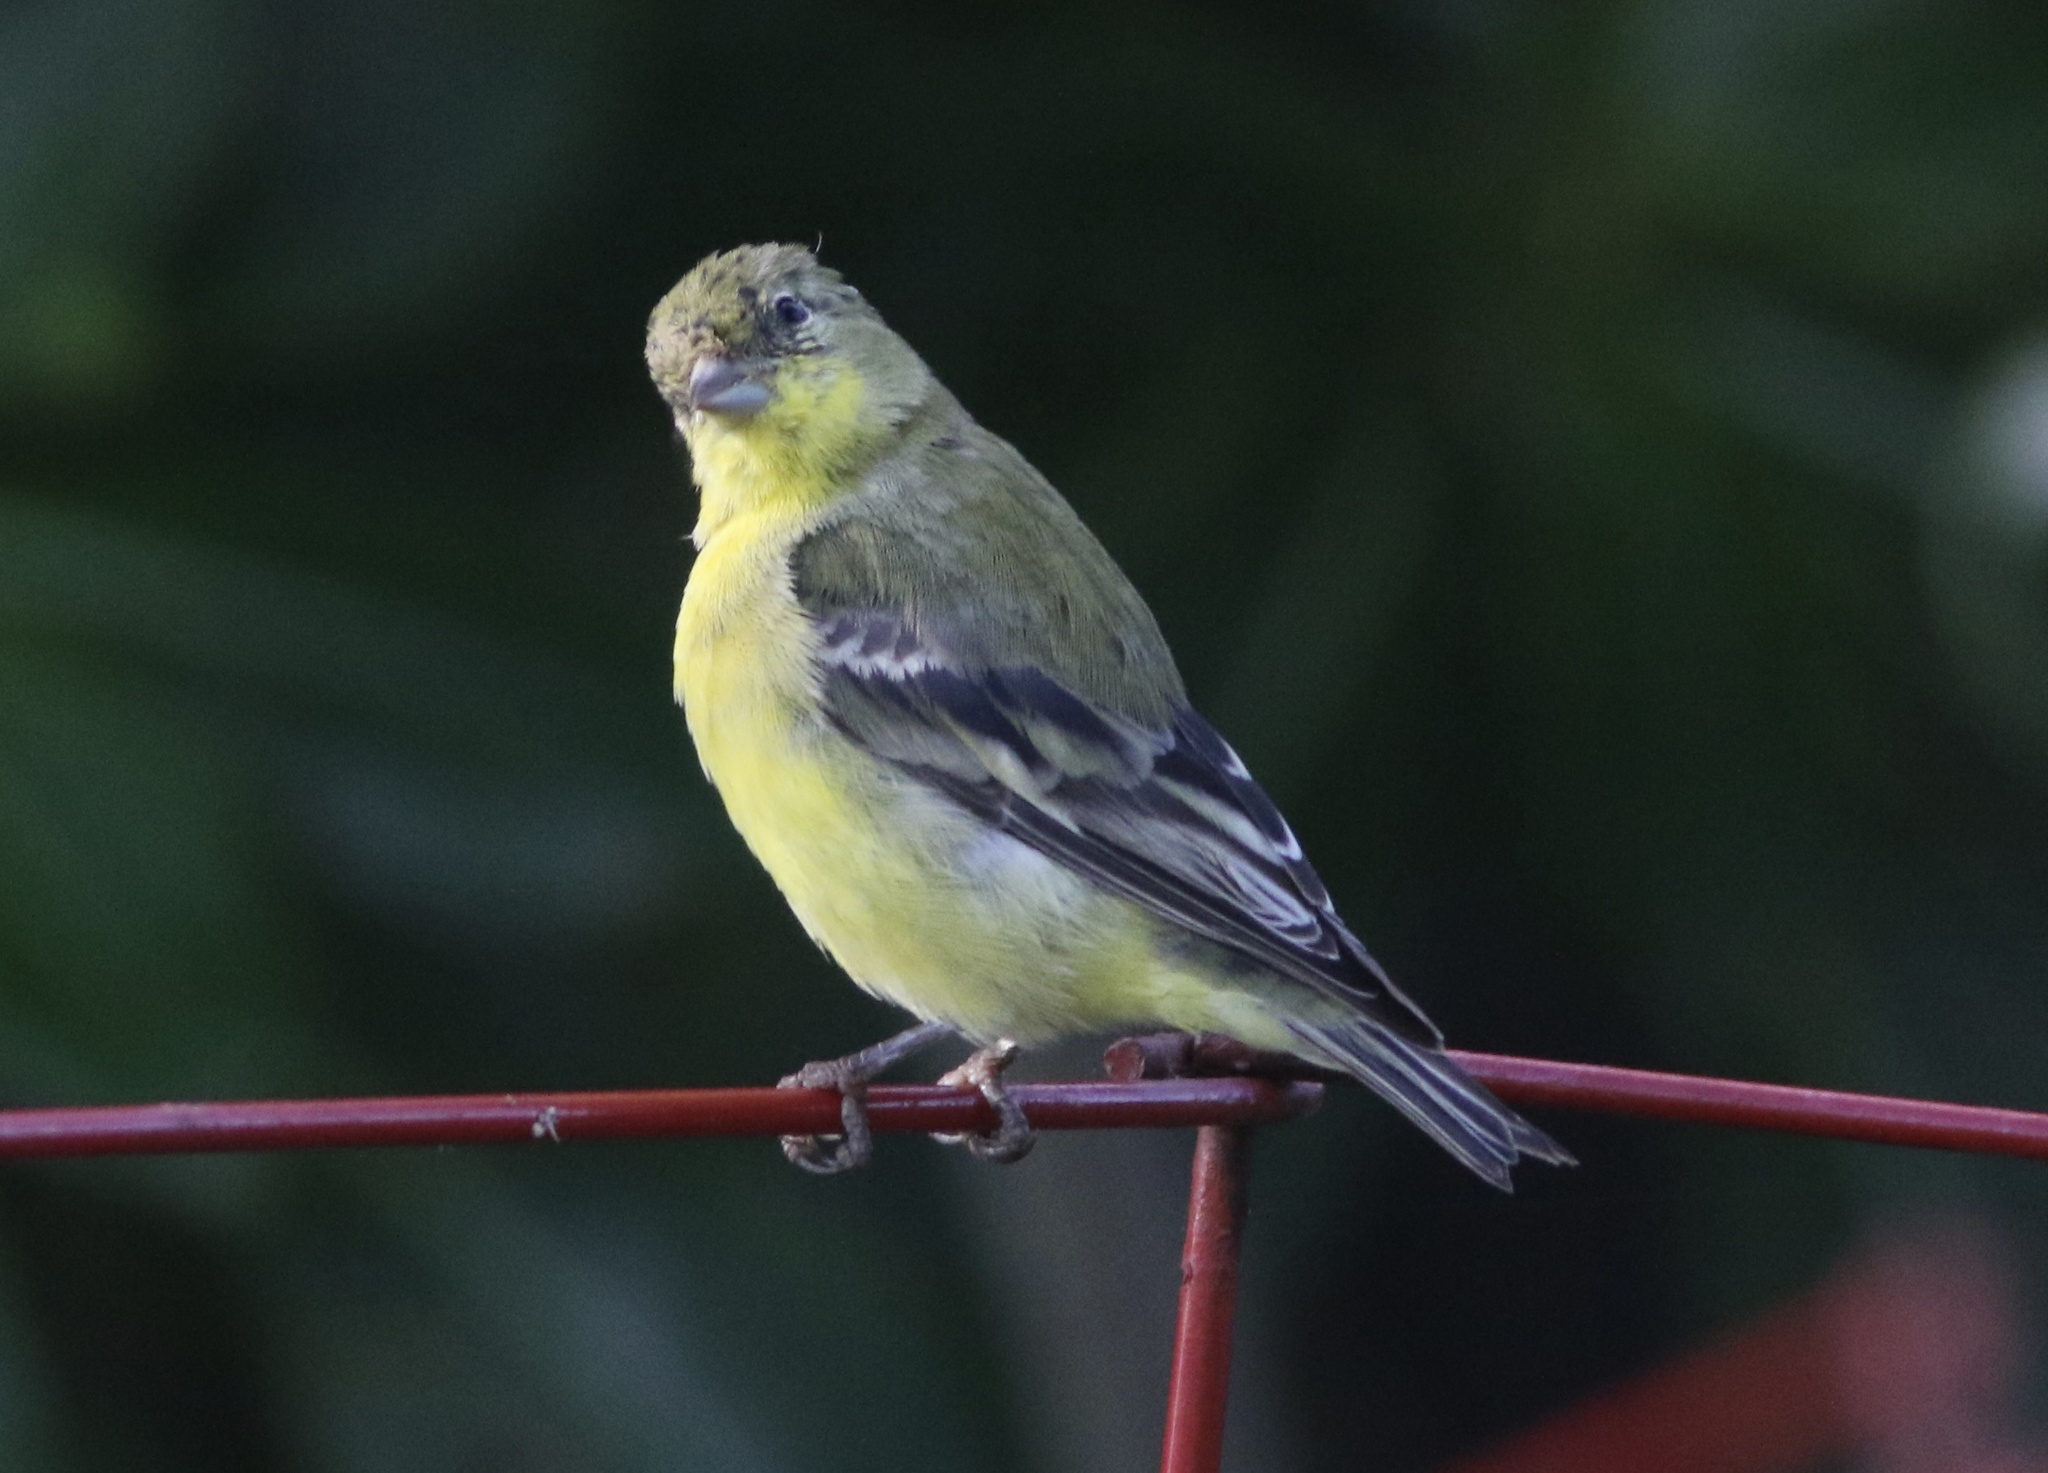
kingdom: Animalia
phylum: Chordata
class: Aves
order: Passeriformes
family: Fringillidae
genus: Spinus
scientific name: Spinus psaltria
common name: Lesser goldfinch
